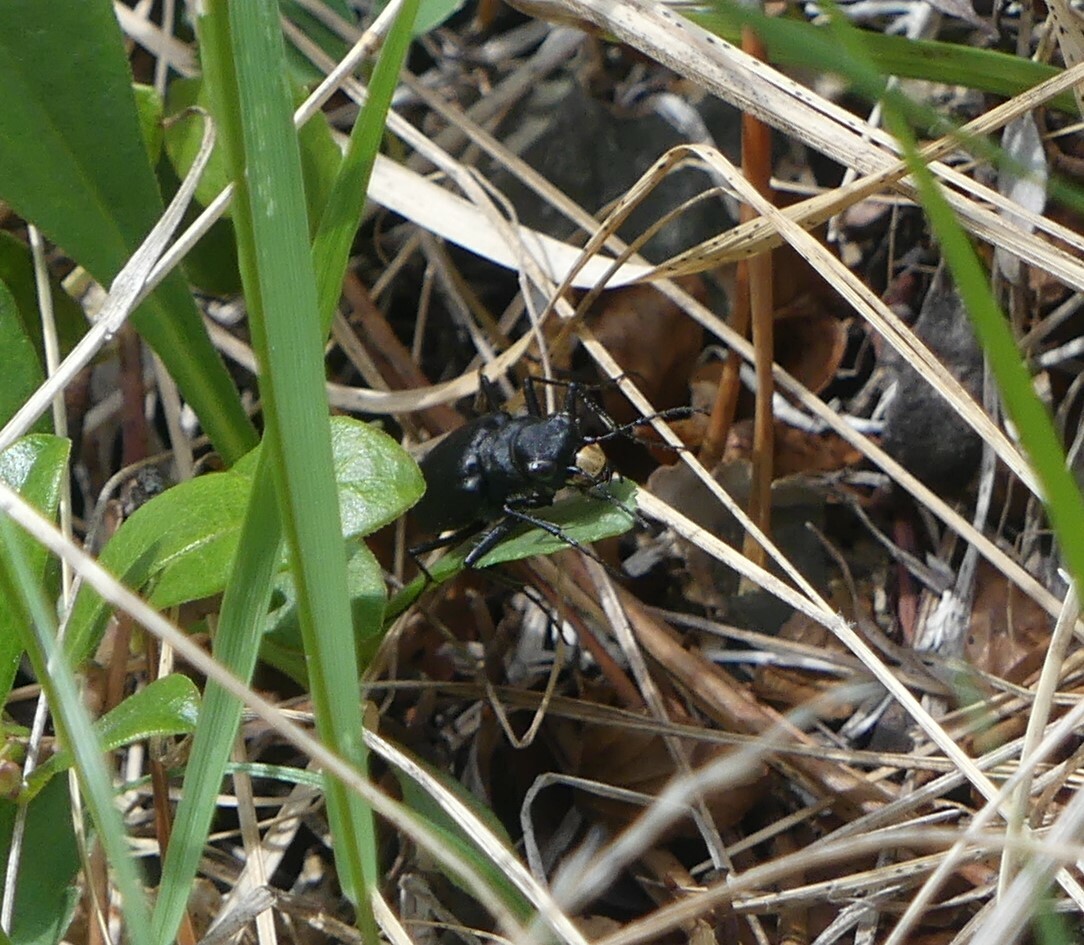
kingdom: Animalia
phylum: Arthropoda
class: Insecta
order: Coleoptera
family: Carabidae
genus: Cicindela
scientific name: Cicindela longilabris
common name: Boreal long-lipped tiger beetle
